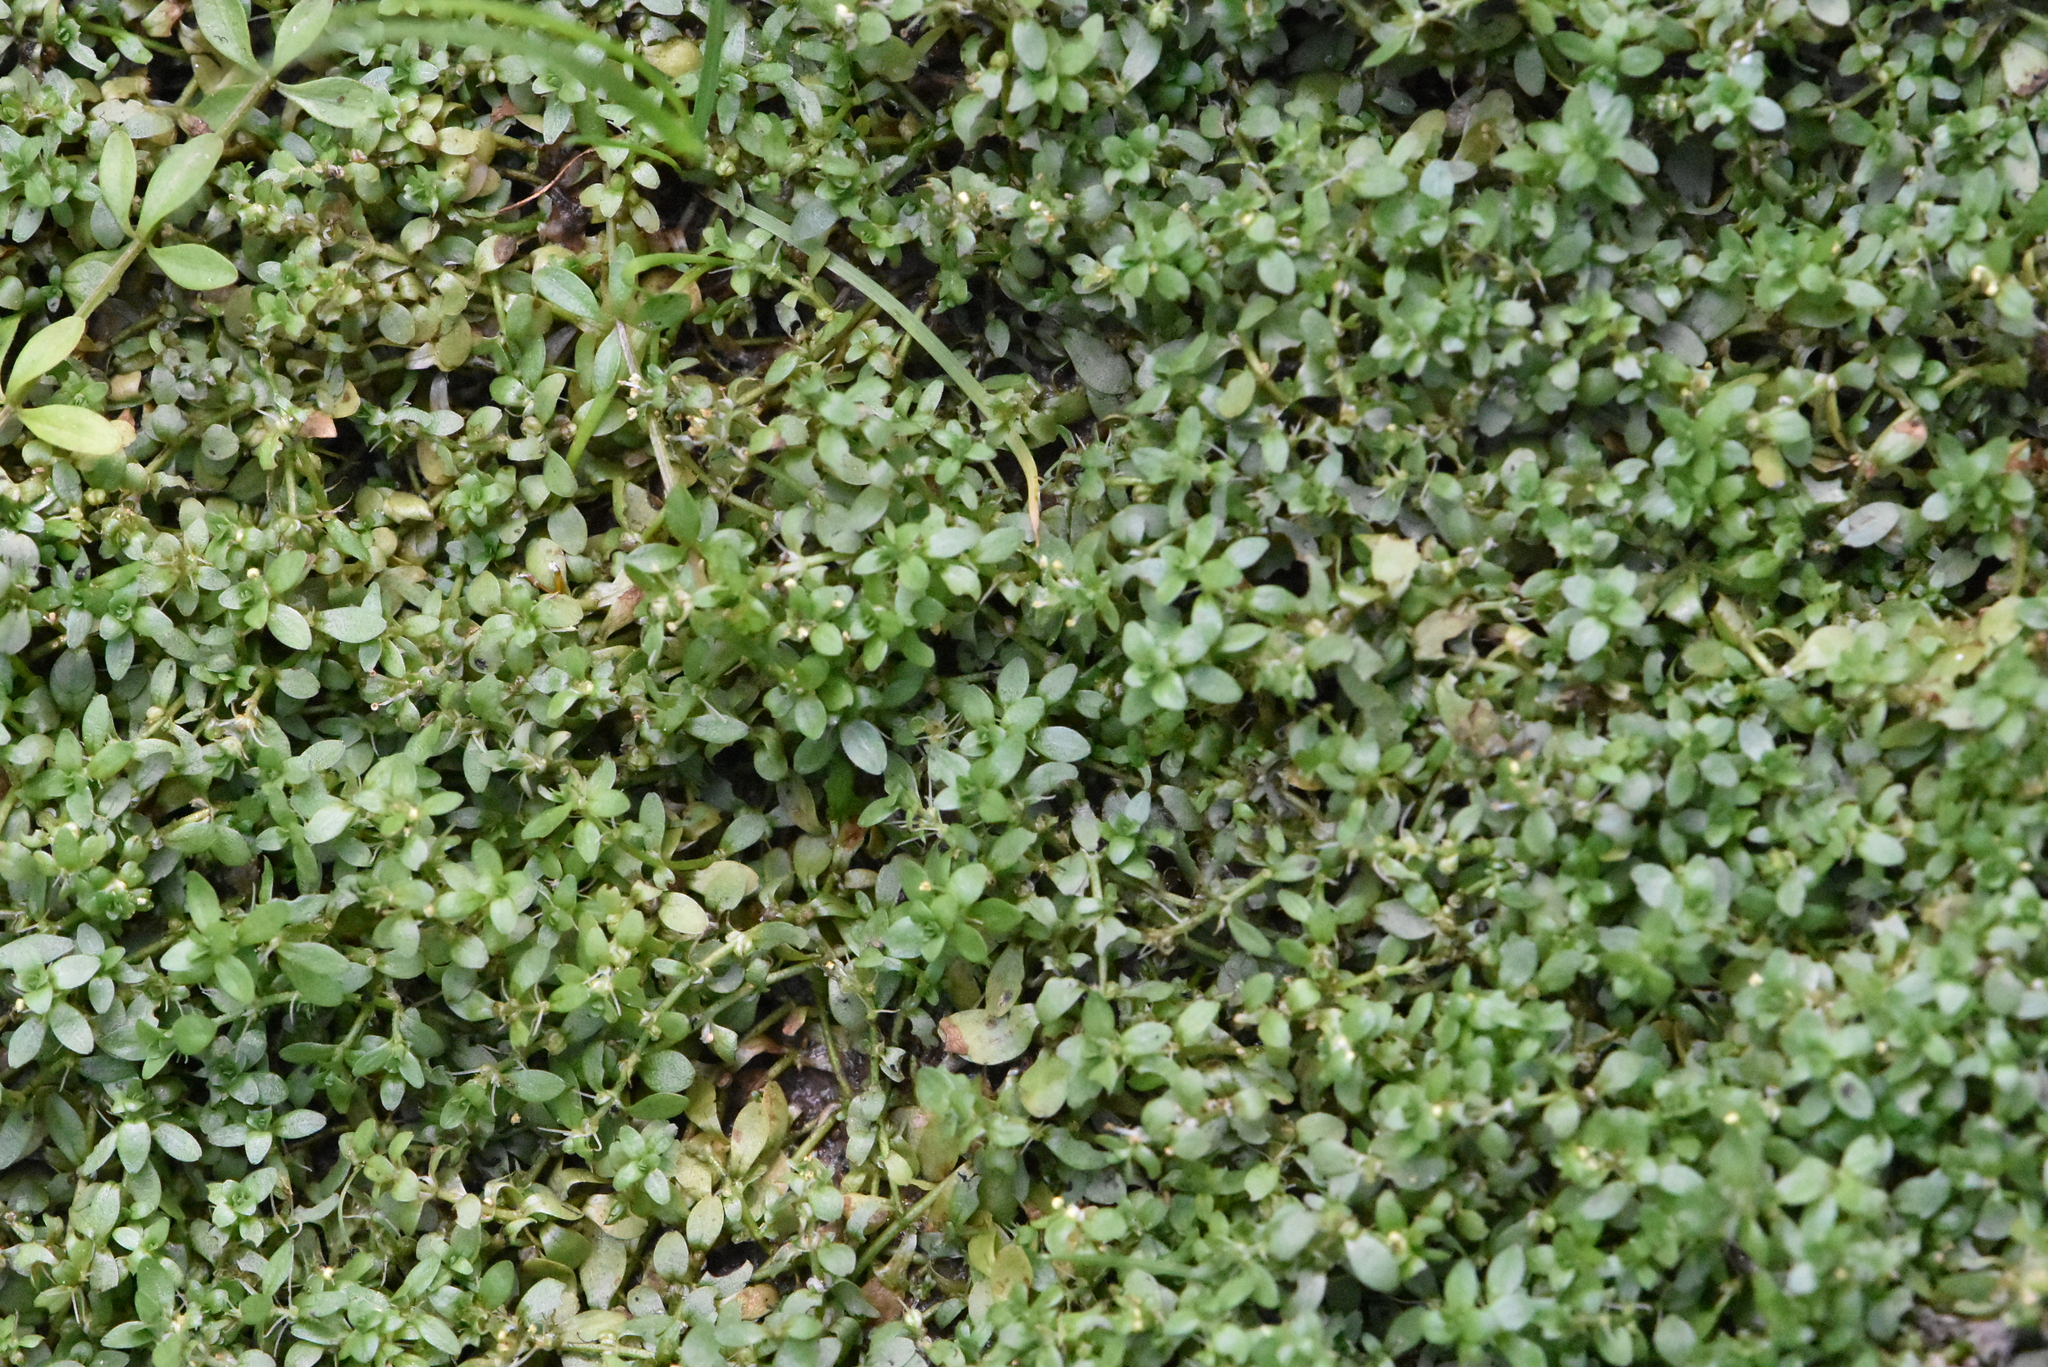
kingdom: Plantae
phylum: Tracheophyta
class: Magnoliopsida
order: Lamiales
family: Plantaginaceae
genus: Callitriche
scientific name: Callitriche cophocarpa
